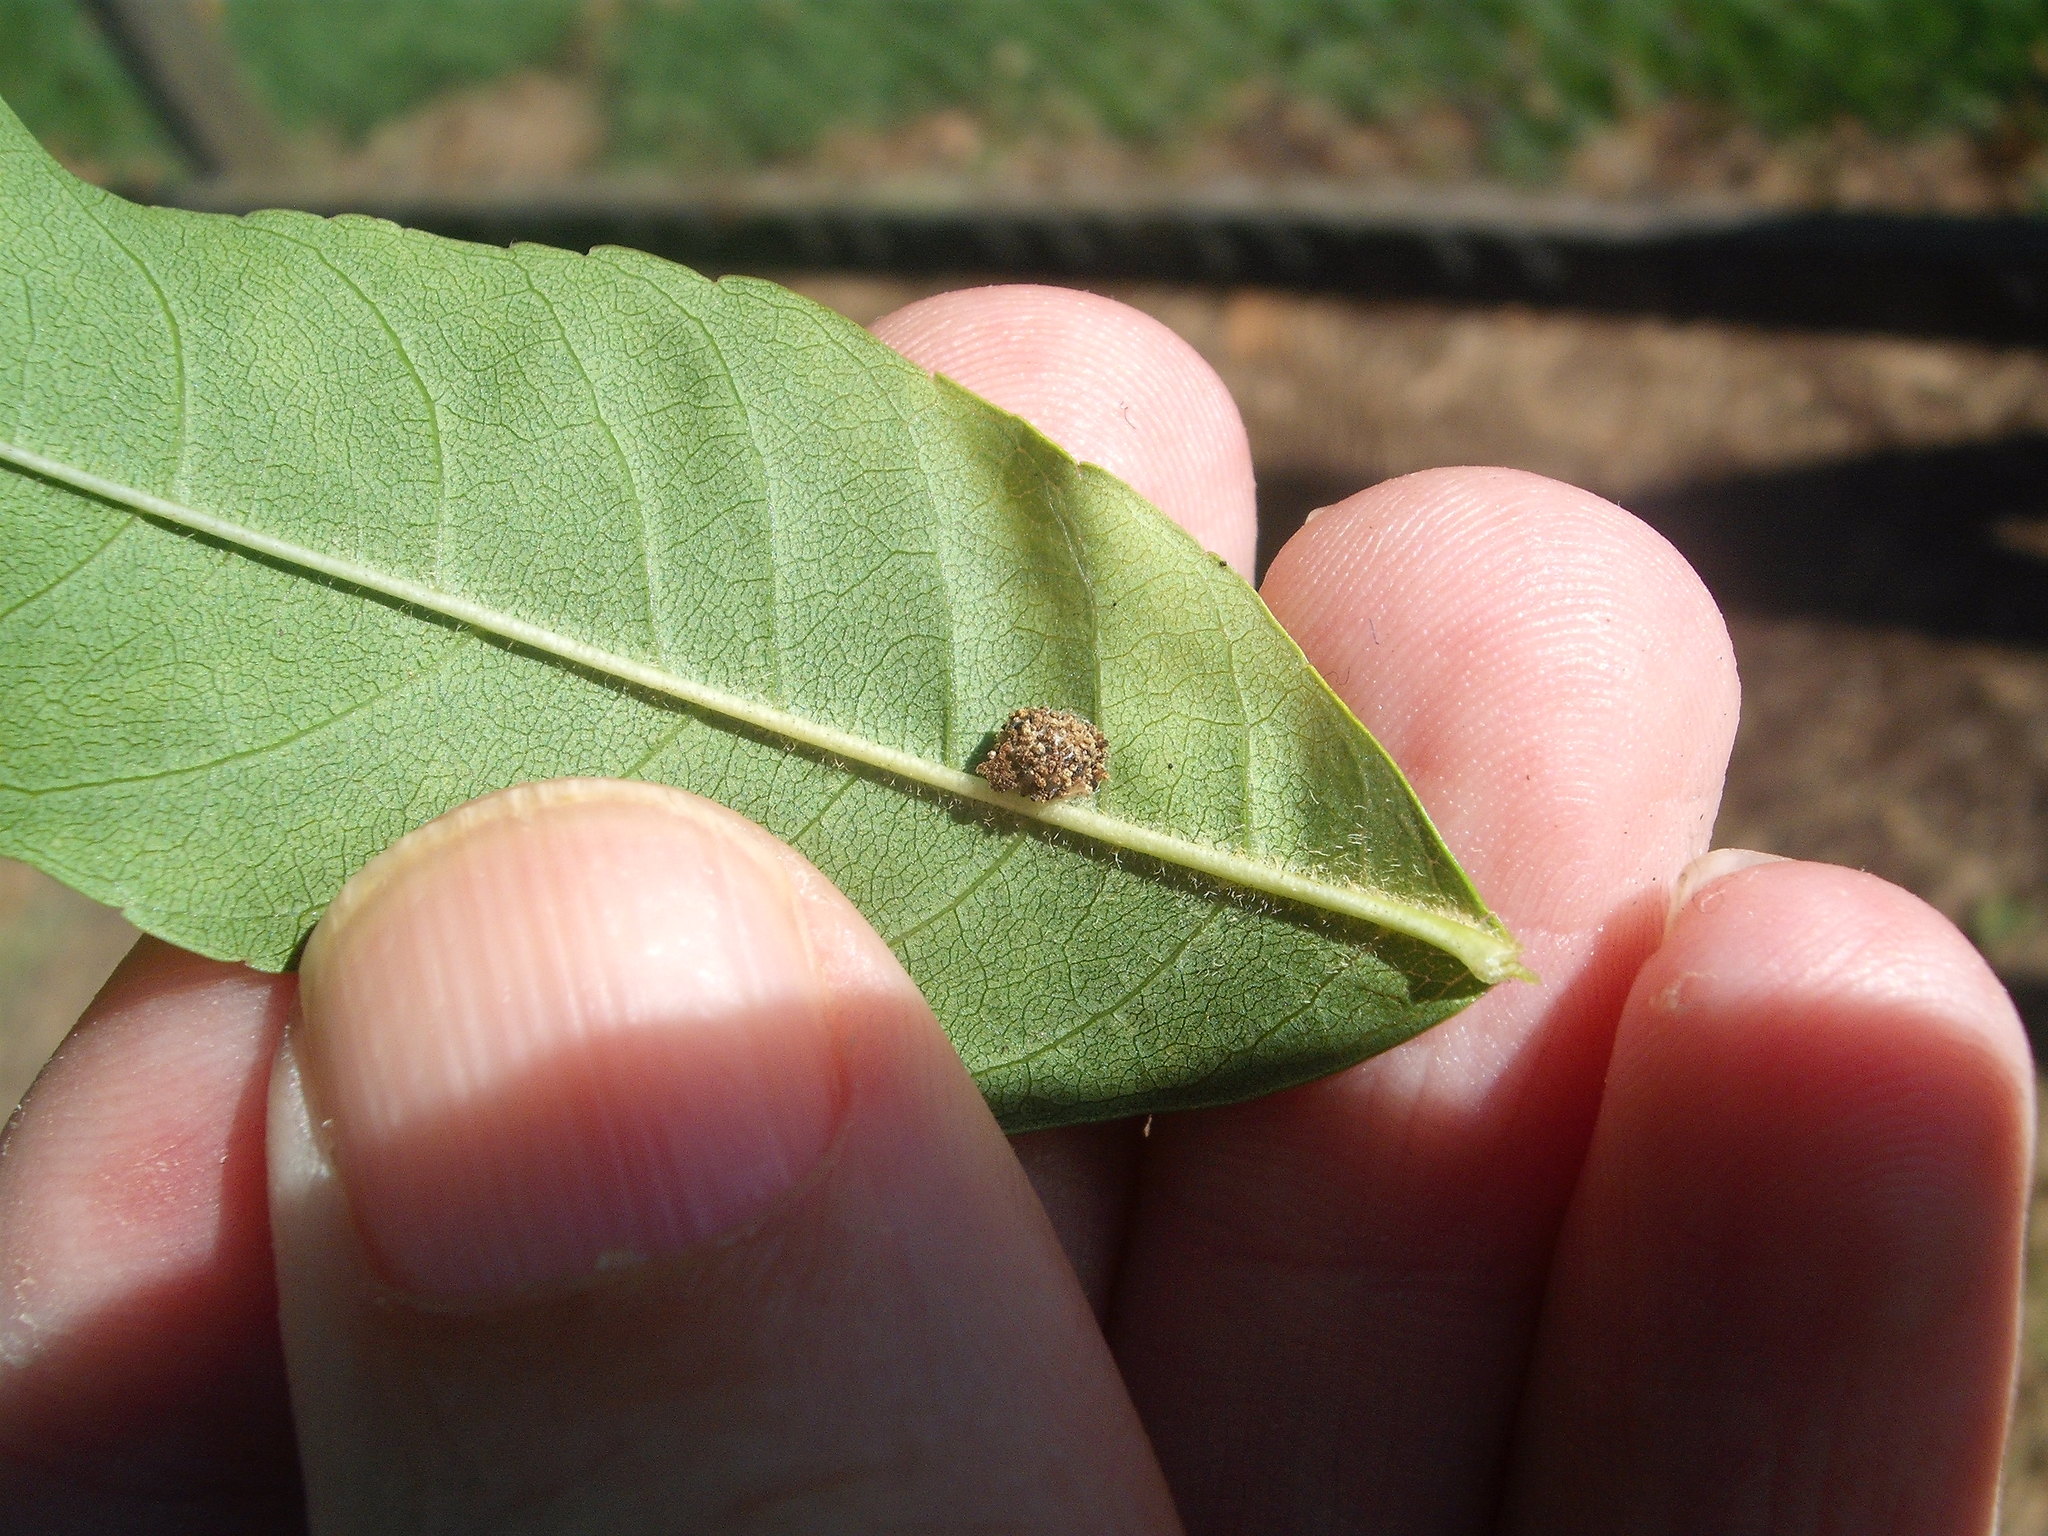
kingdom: Animalia
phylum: Arthropoda
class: Insecta
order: Neuroptera
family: Chrysopidae
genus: Mallada
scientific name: Mallada basalis
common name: Green lacewing
